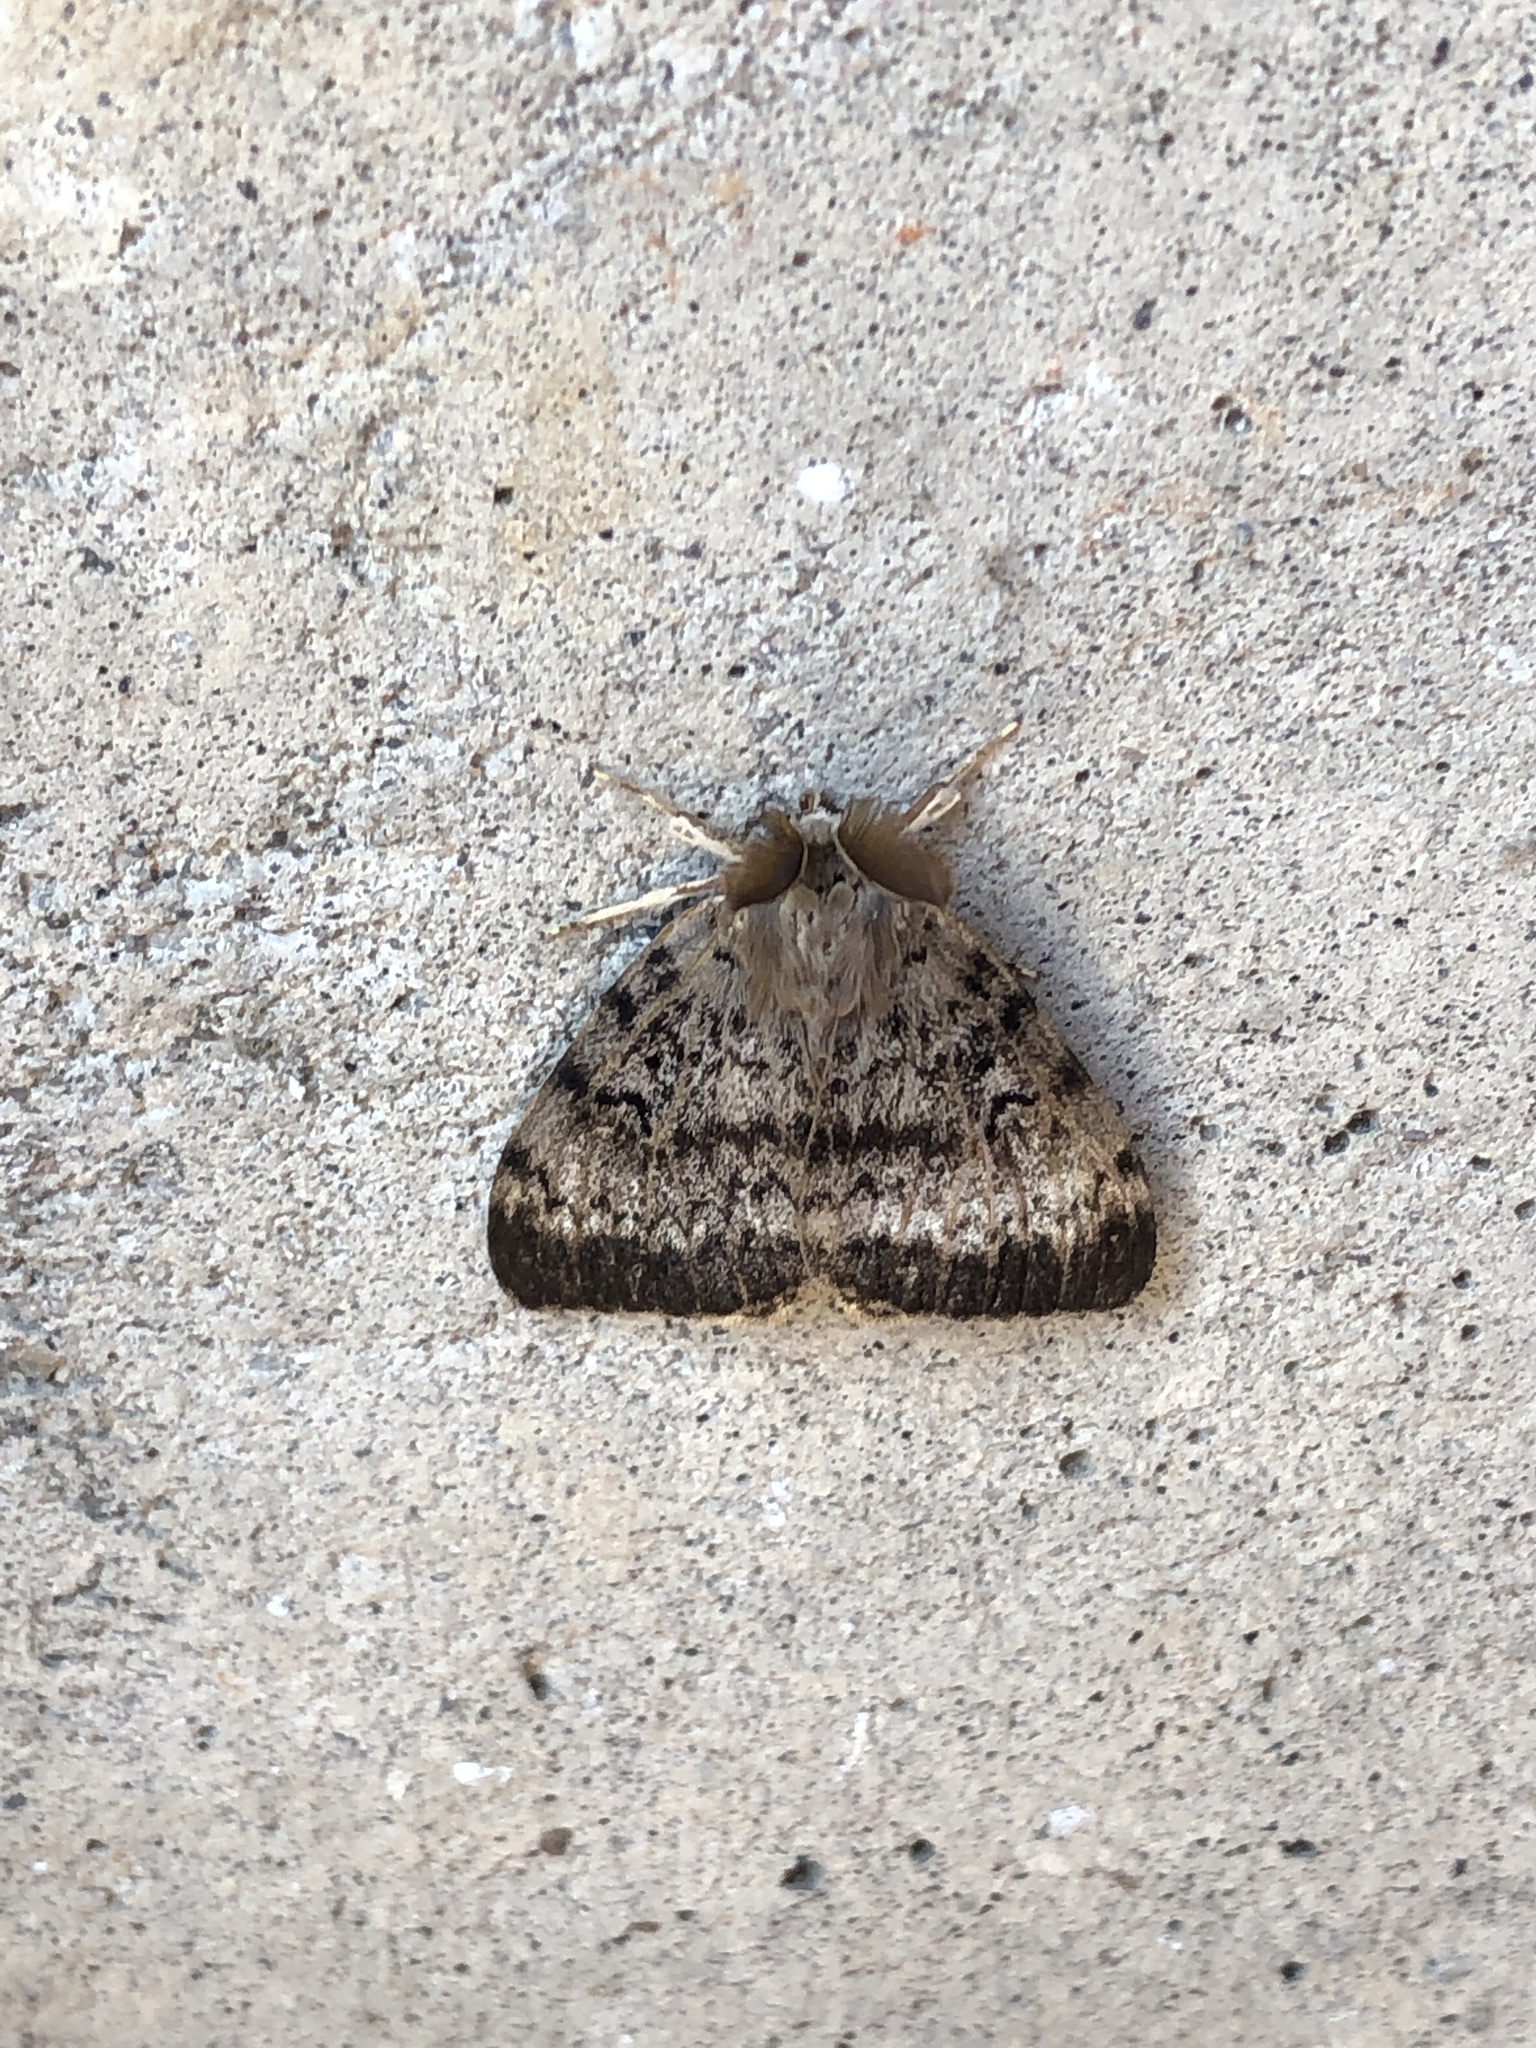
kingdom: Animalia
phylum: Arthropoda
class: Insecta
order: Lepidoptera
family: Erebidae
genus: Lymantria
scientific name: Lymantria dispar
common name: Gypsy moth
